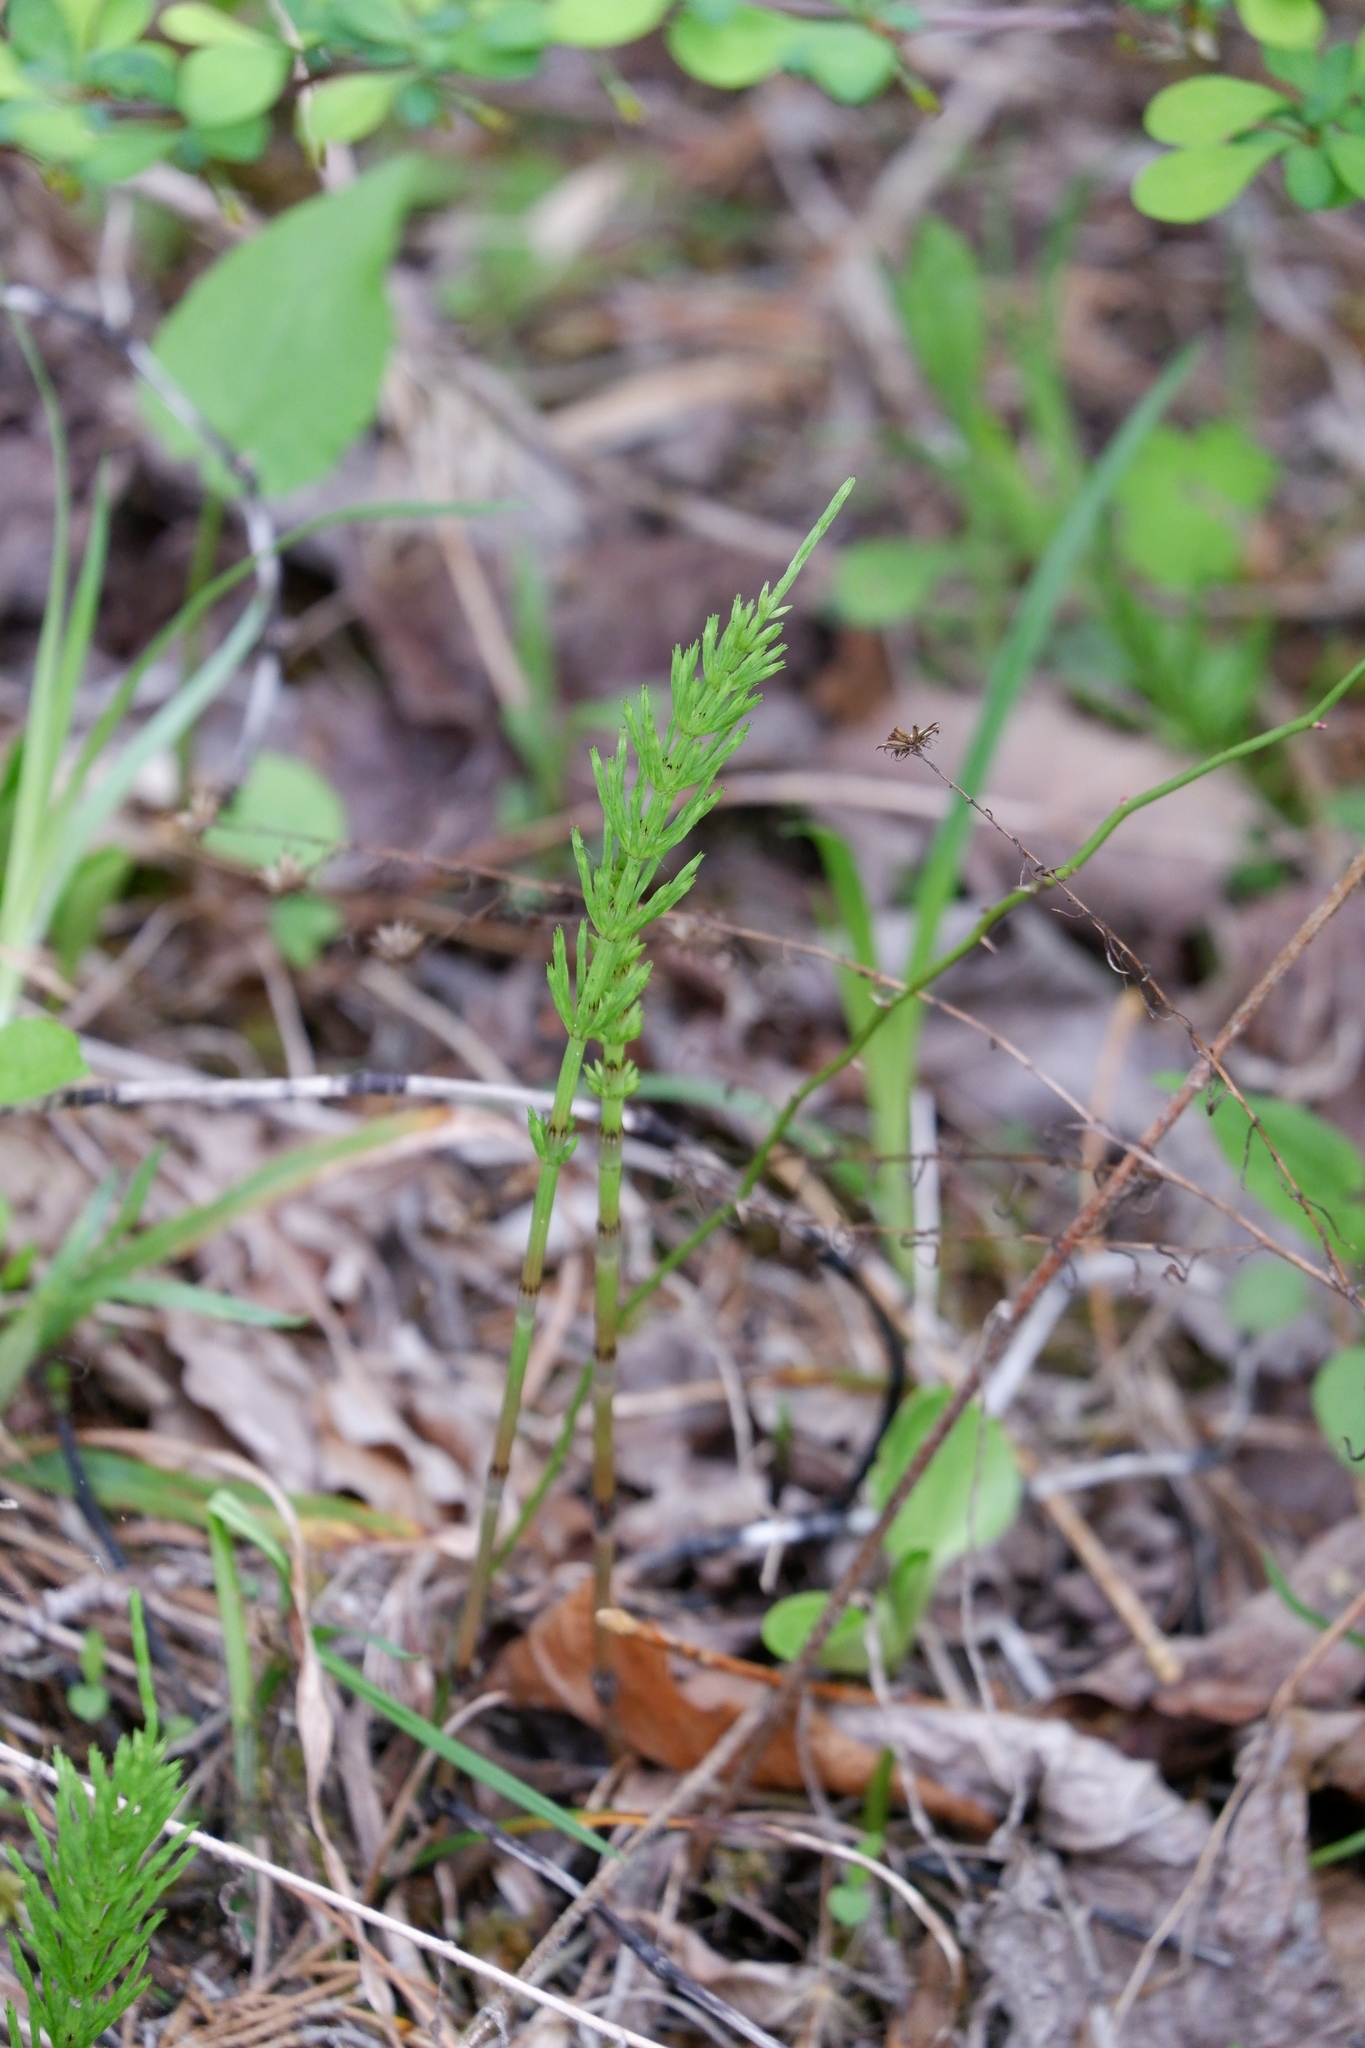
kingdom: Plantae
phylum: Tracheophyta
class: Polypodiopsida
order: Equisetales
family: Equisetaceae
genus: Equisetum
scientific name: Equisetum arvense
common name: Field horsetail
